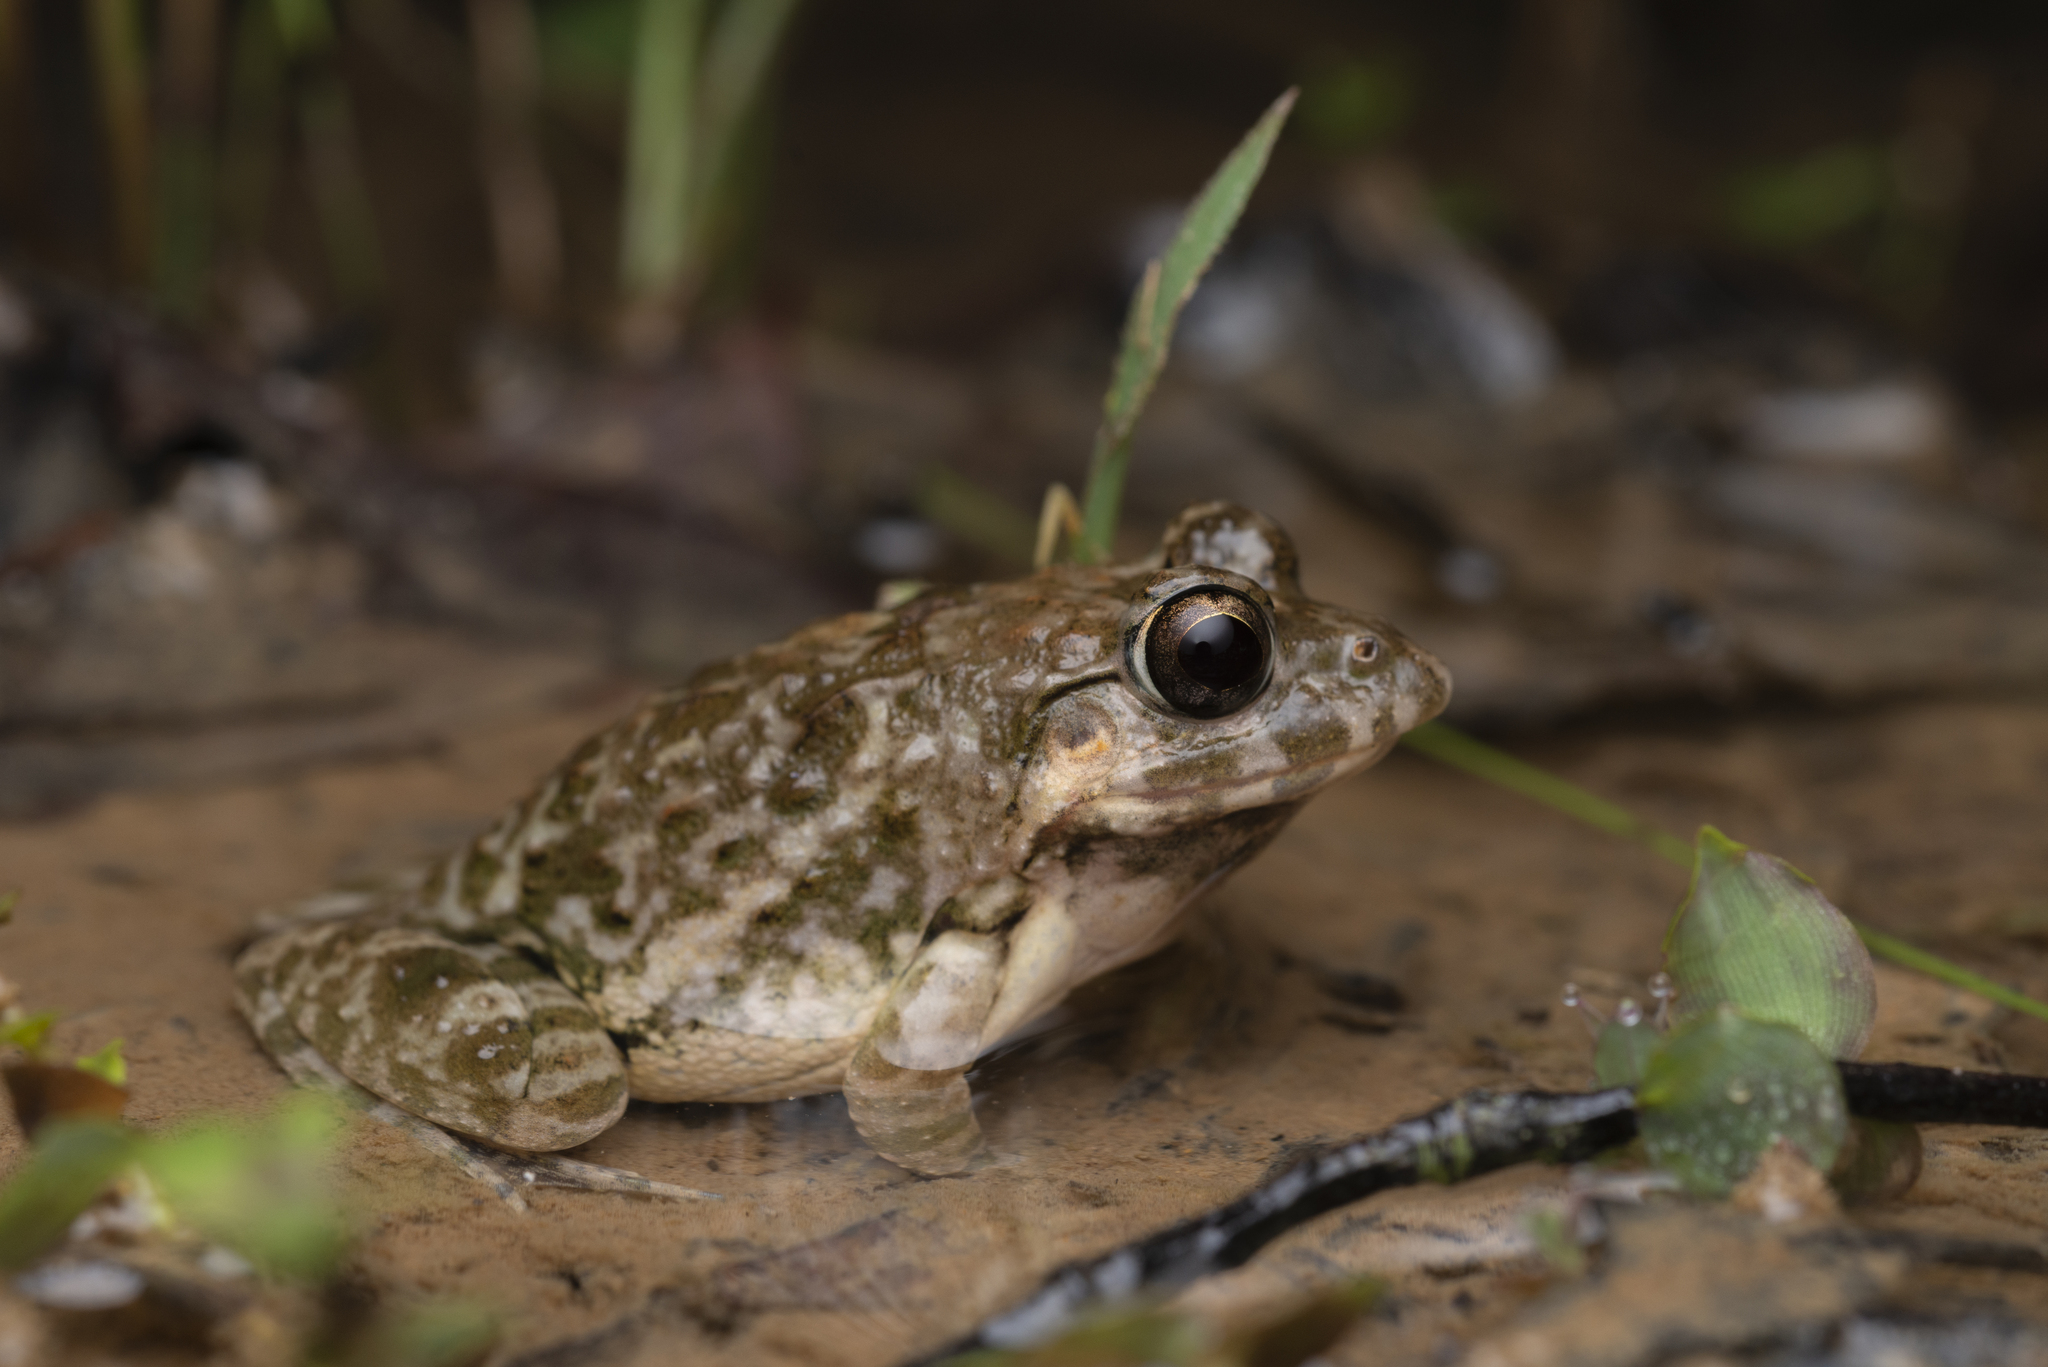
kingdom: Animalia
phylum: Chordata
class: Amphibia
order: Anura
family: Dicroglossidae
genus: Fejervarya
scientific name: Fejervarya multistriata
